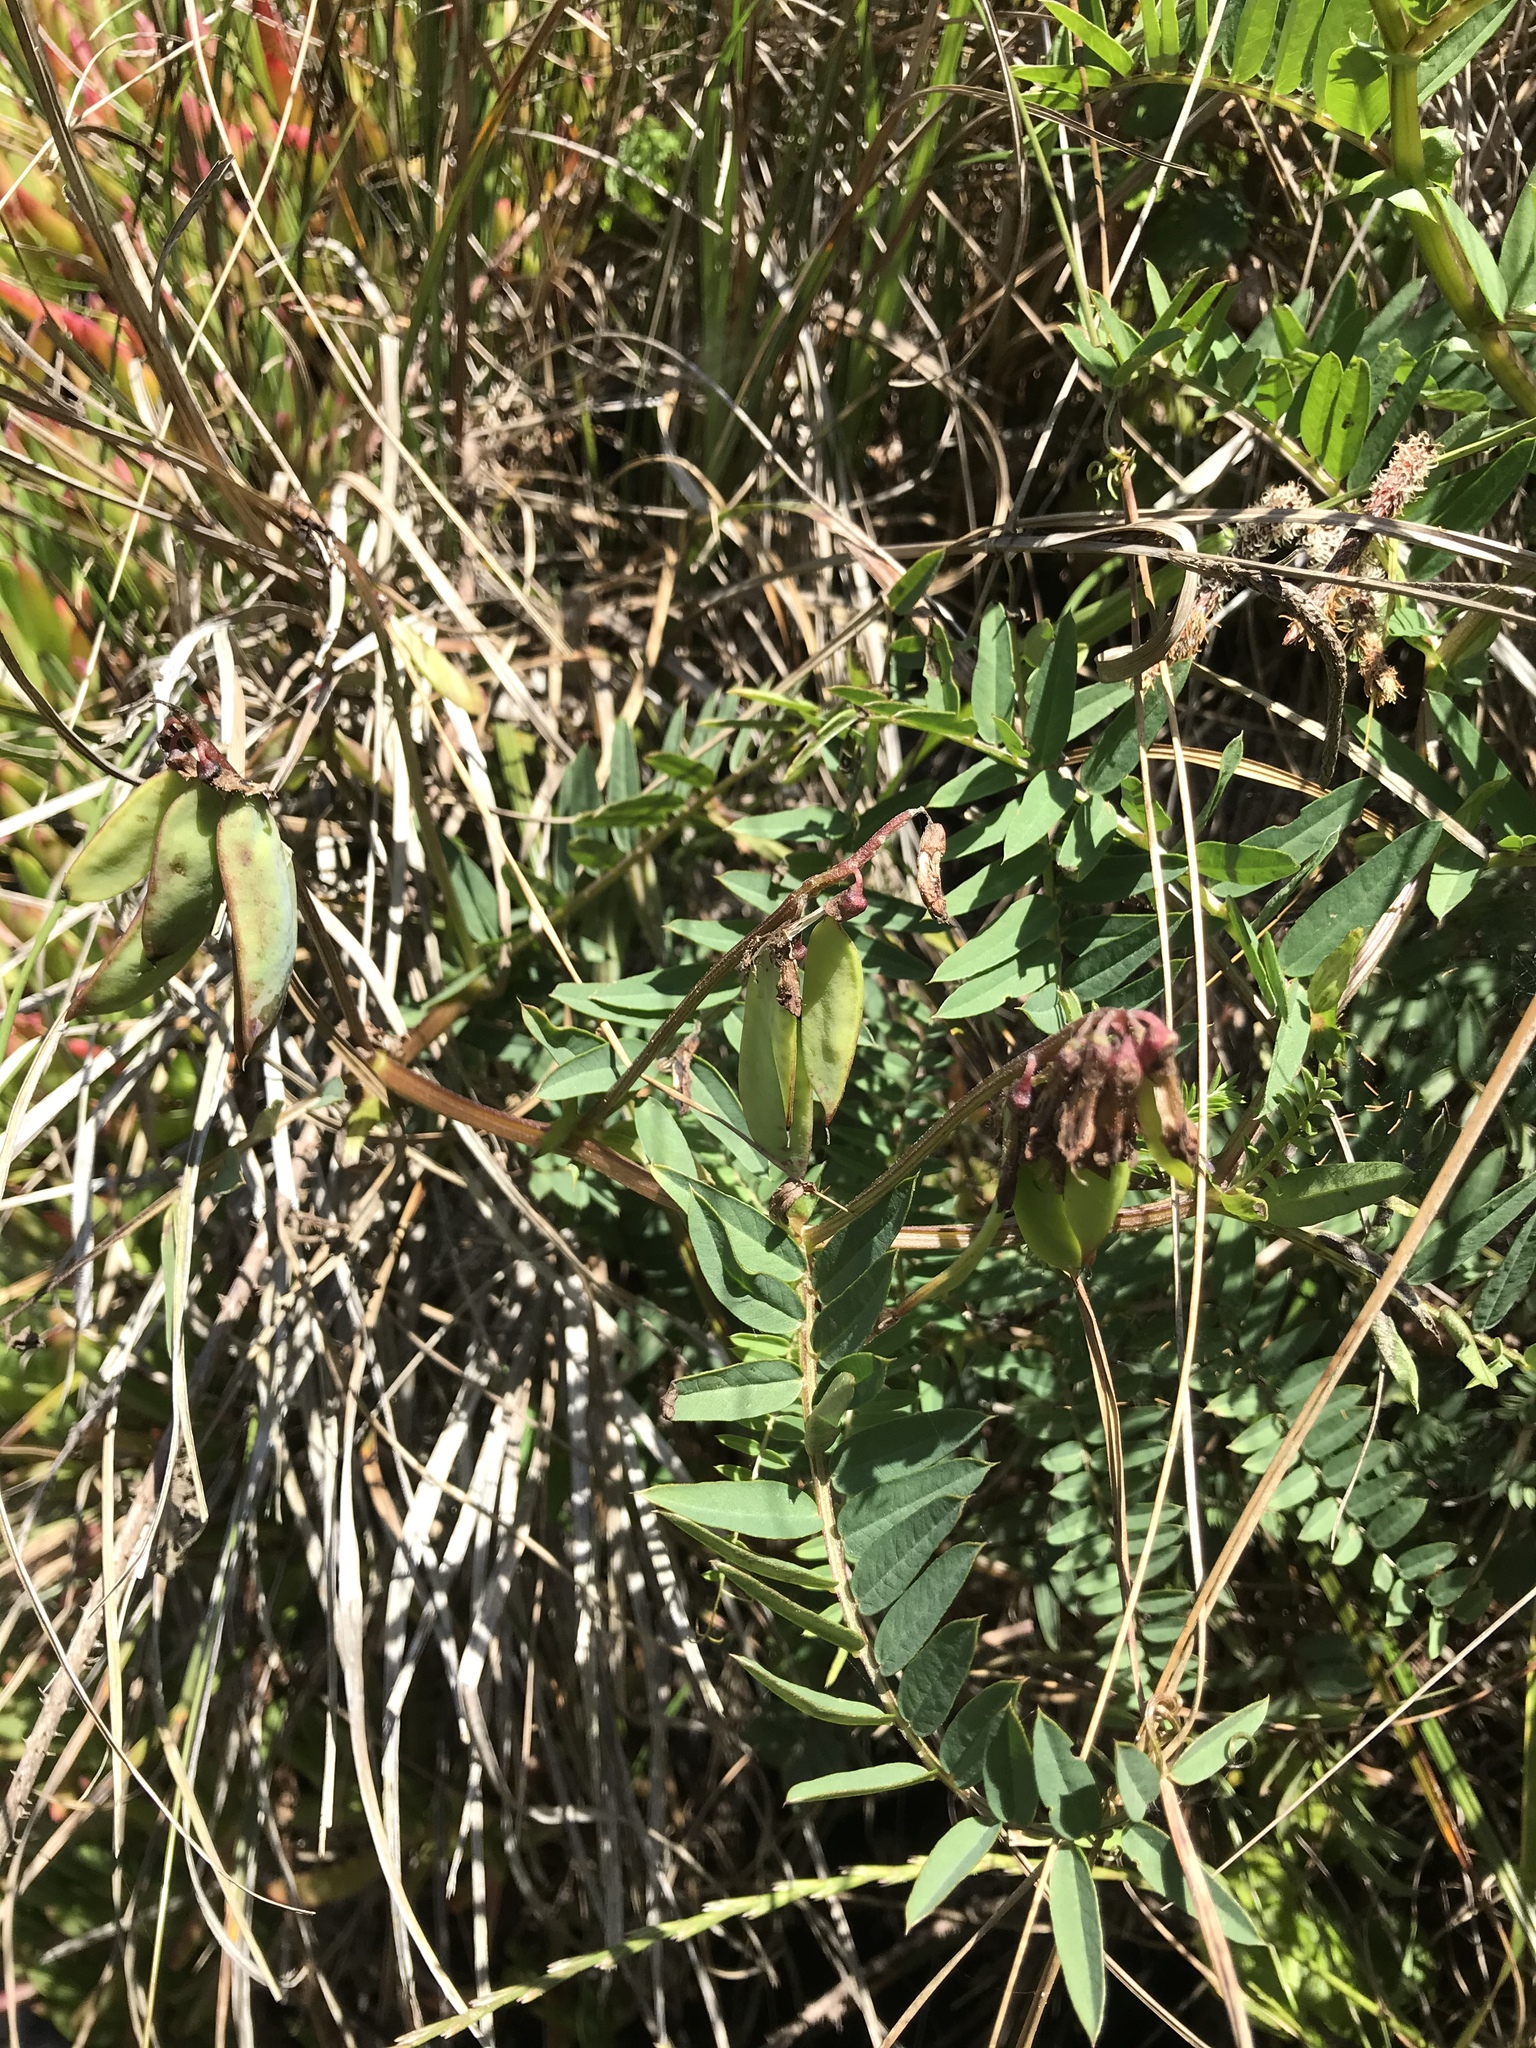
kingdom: Plantae
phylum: Tracheophyta
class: Magnoliopsida
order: Fabales
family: Fabaceae
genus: Vicia
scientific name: Vicia
